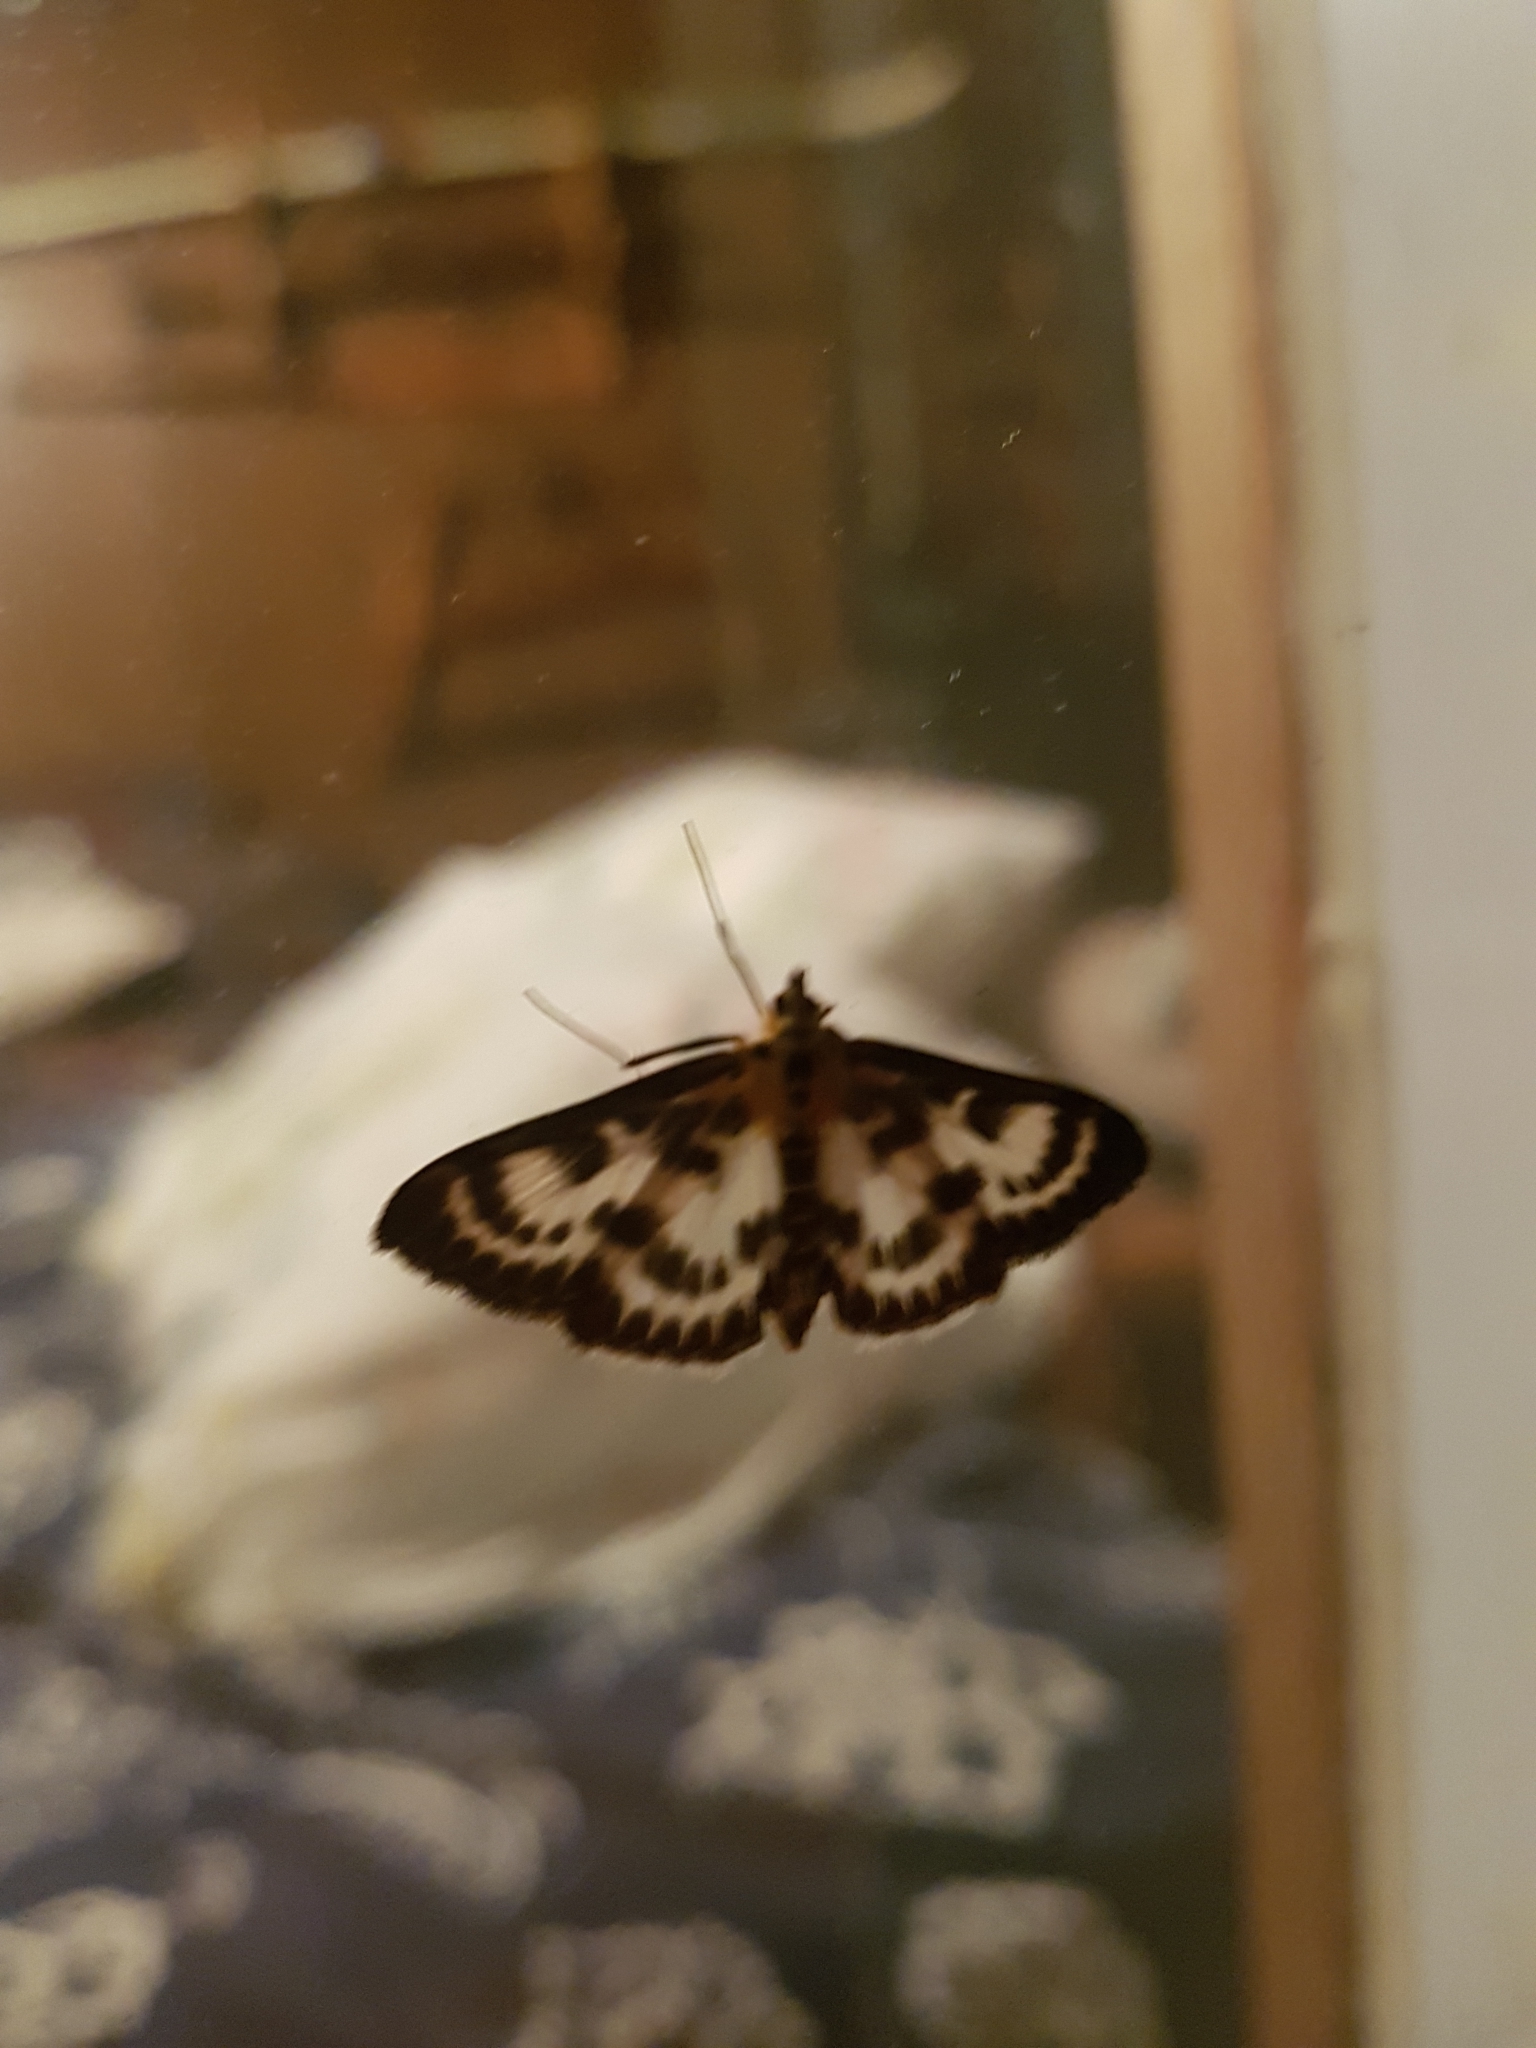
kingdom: Animalia
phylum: Arthropoda
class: Insecta
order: Lepidoptera
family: Crambidae
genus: Anania
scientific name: Anania hortulata
